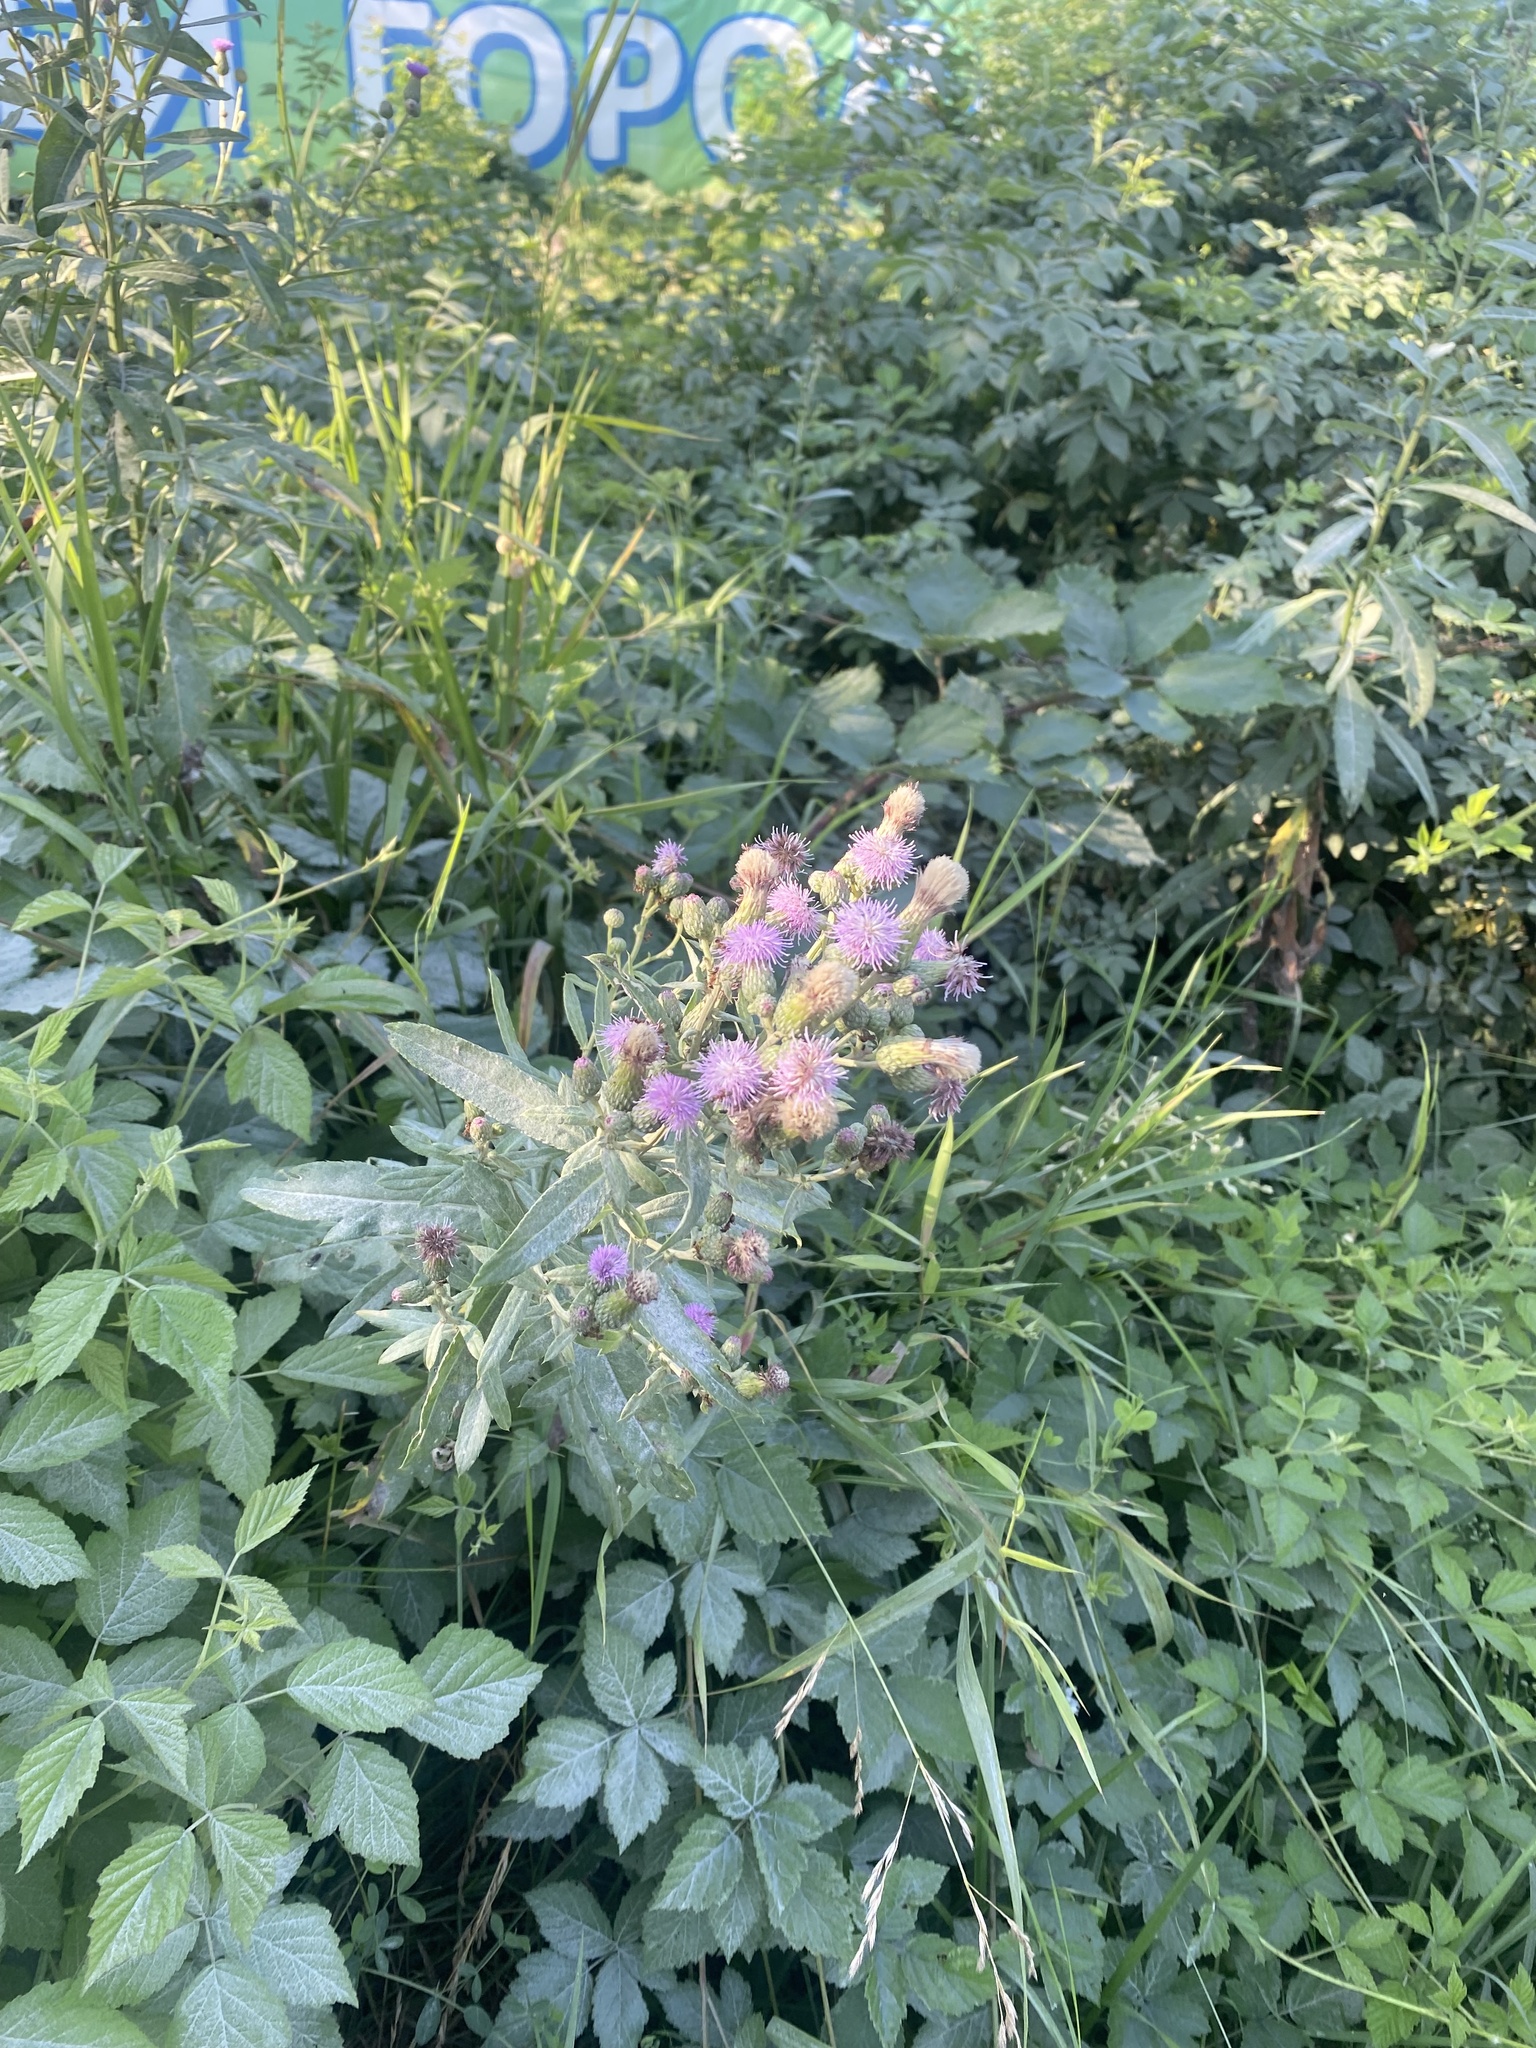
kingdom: Plantae
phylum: Tracheophyta
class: Magnoliopsida
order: Asterales
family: Asteraceae
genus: Cirsium
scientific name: Cirsium arvense
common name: Creeping thistle
